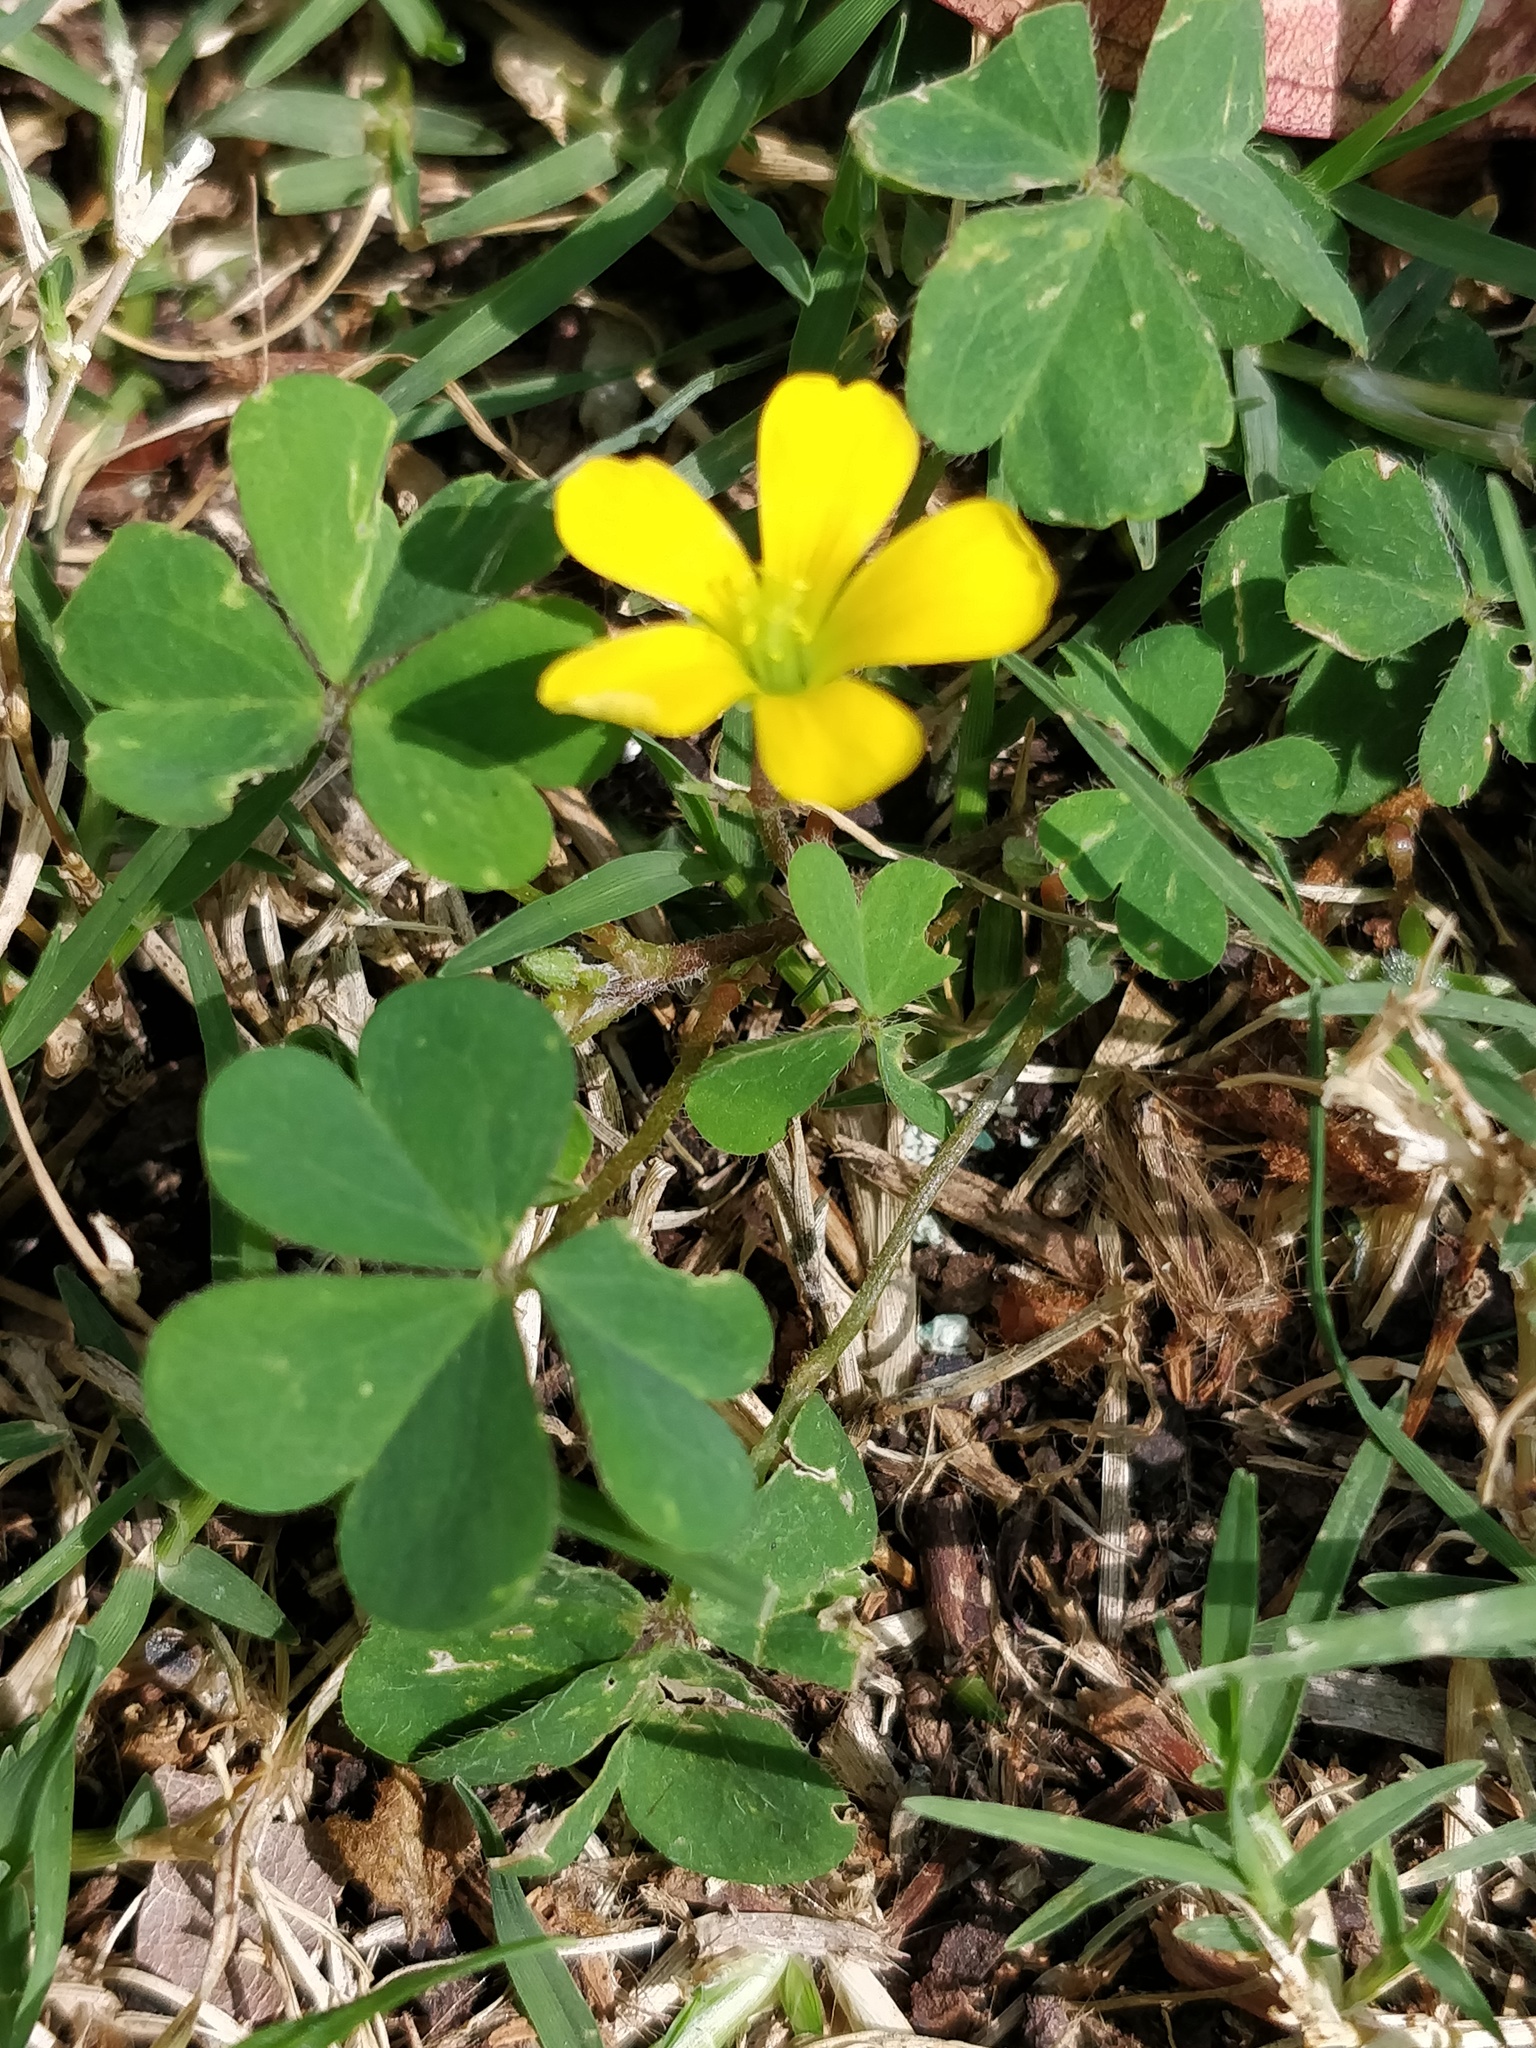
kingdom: Plantae
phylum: Tracheophyta
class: Magnoliopsida
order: Oxalidales
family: Oxalidaceae
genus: Oxalis
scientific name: Oxalis corniculata
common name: Procumbent yellow-sorrel
